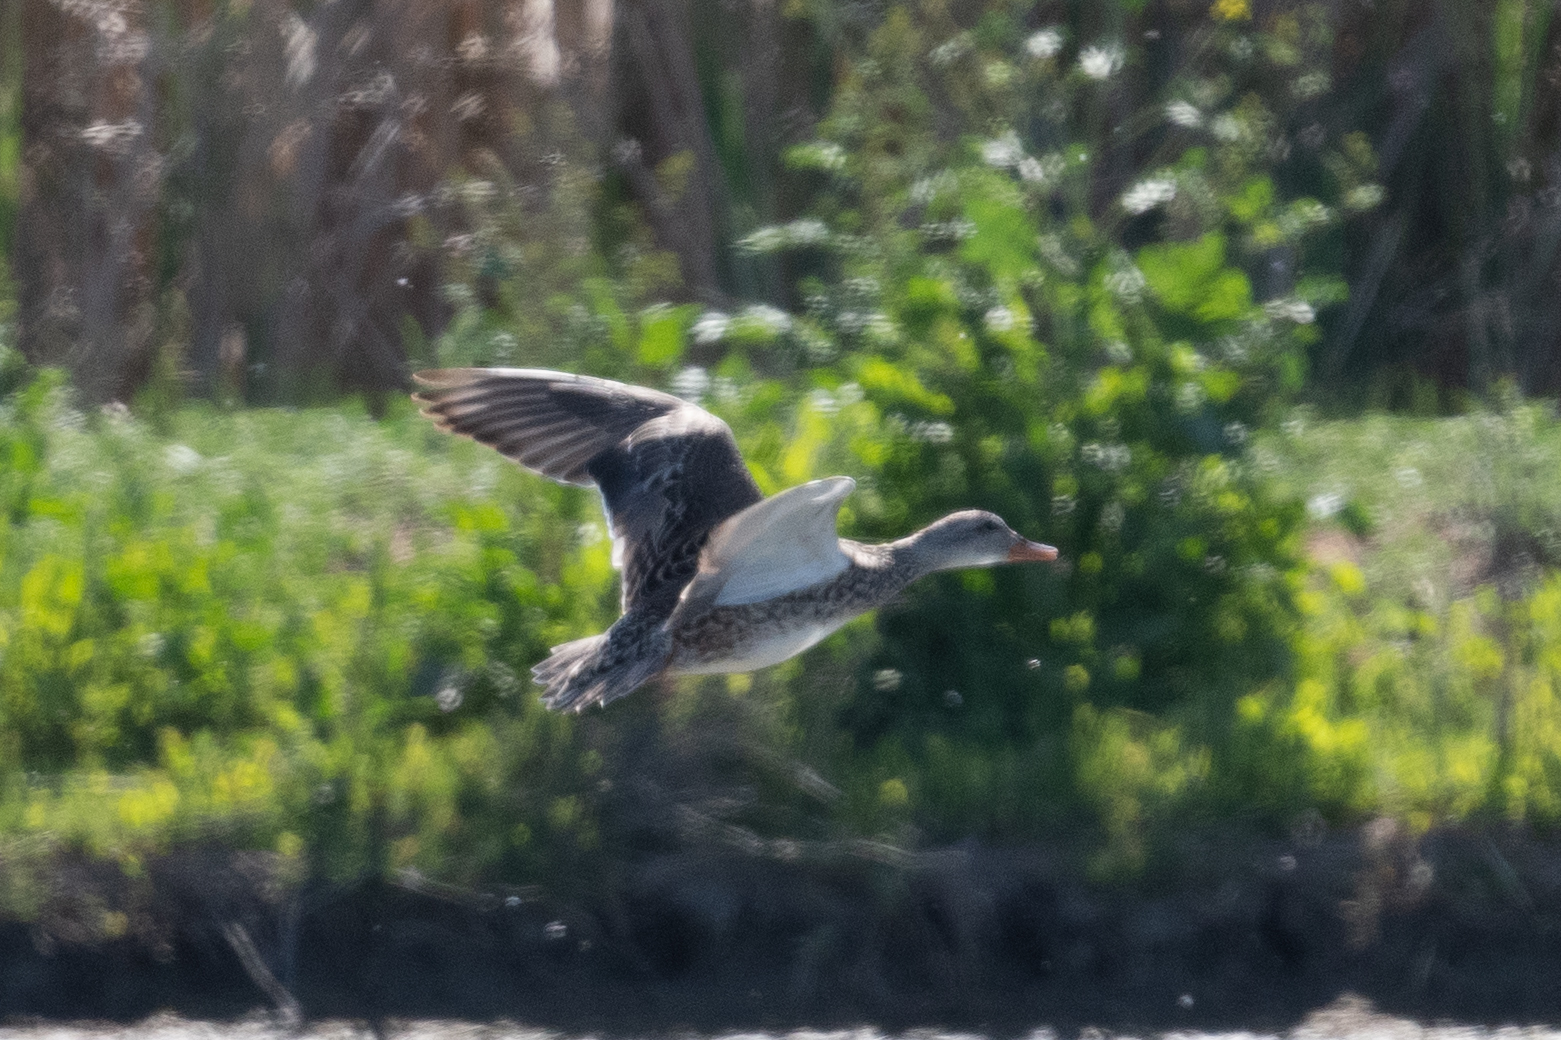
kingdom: Animalia
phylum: Chordata
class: Aves
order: Anseriformes
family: Anatidae
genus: Mareca
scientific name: Mareca strepera
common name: Gadwall
